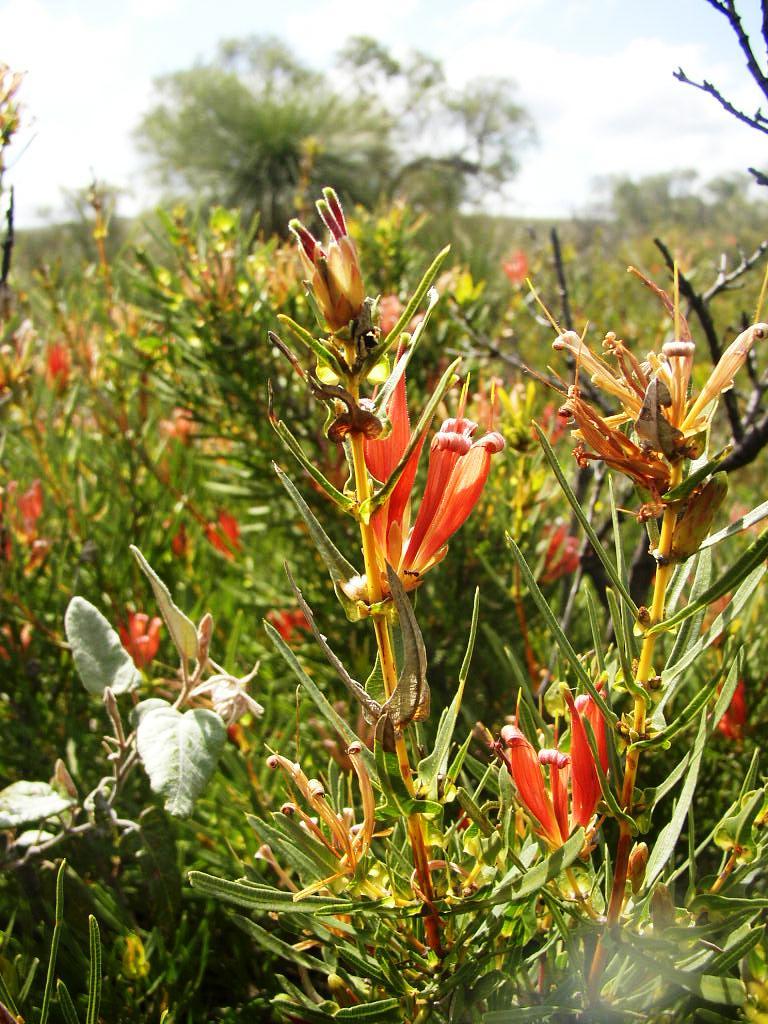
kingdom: Plantae
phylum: Tracheophyta
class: Magnoliopsida
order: Proteales
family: Proteaceae
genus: Lambertia
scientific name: Lambertia multiflora
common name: Many-flowered honeysuckle
